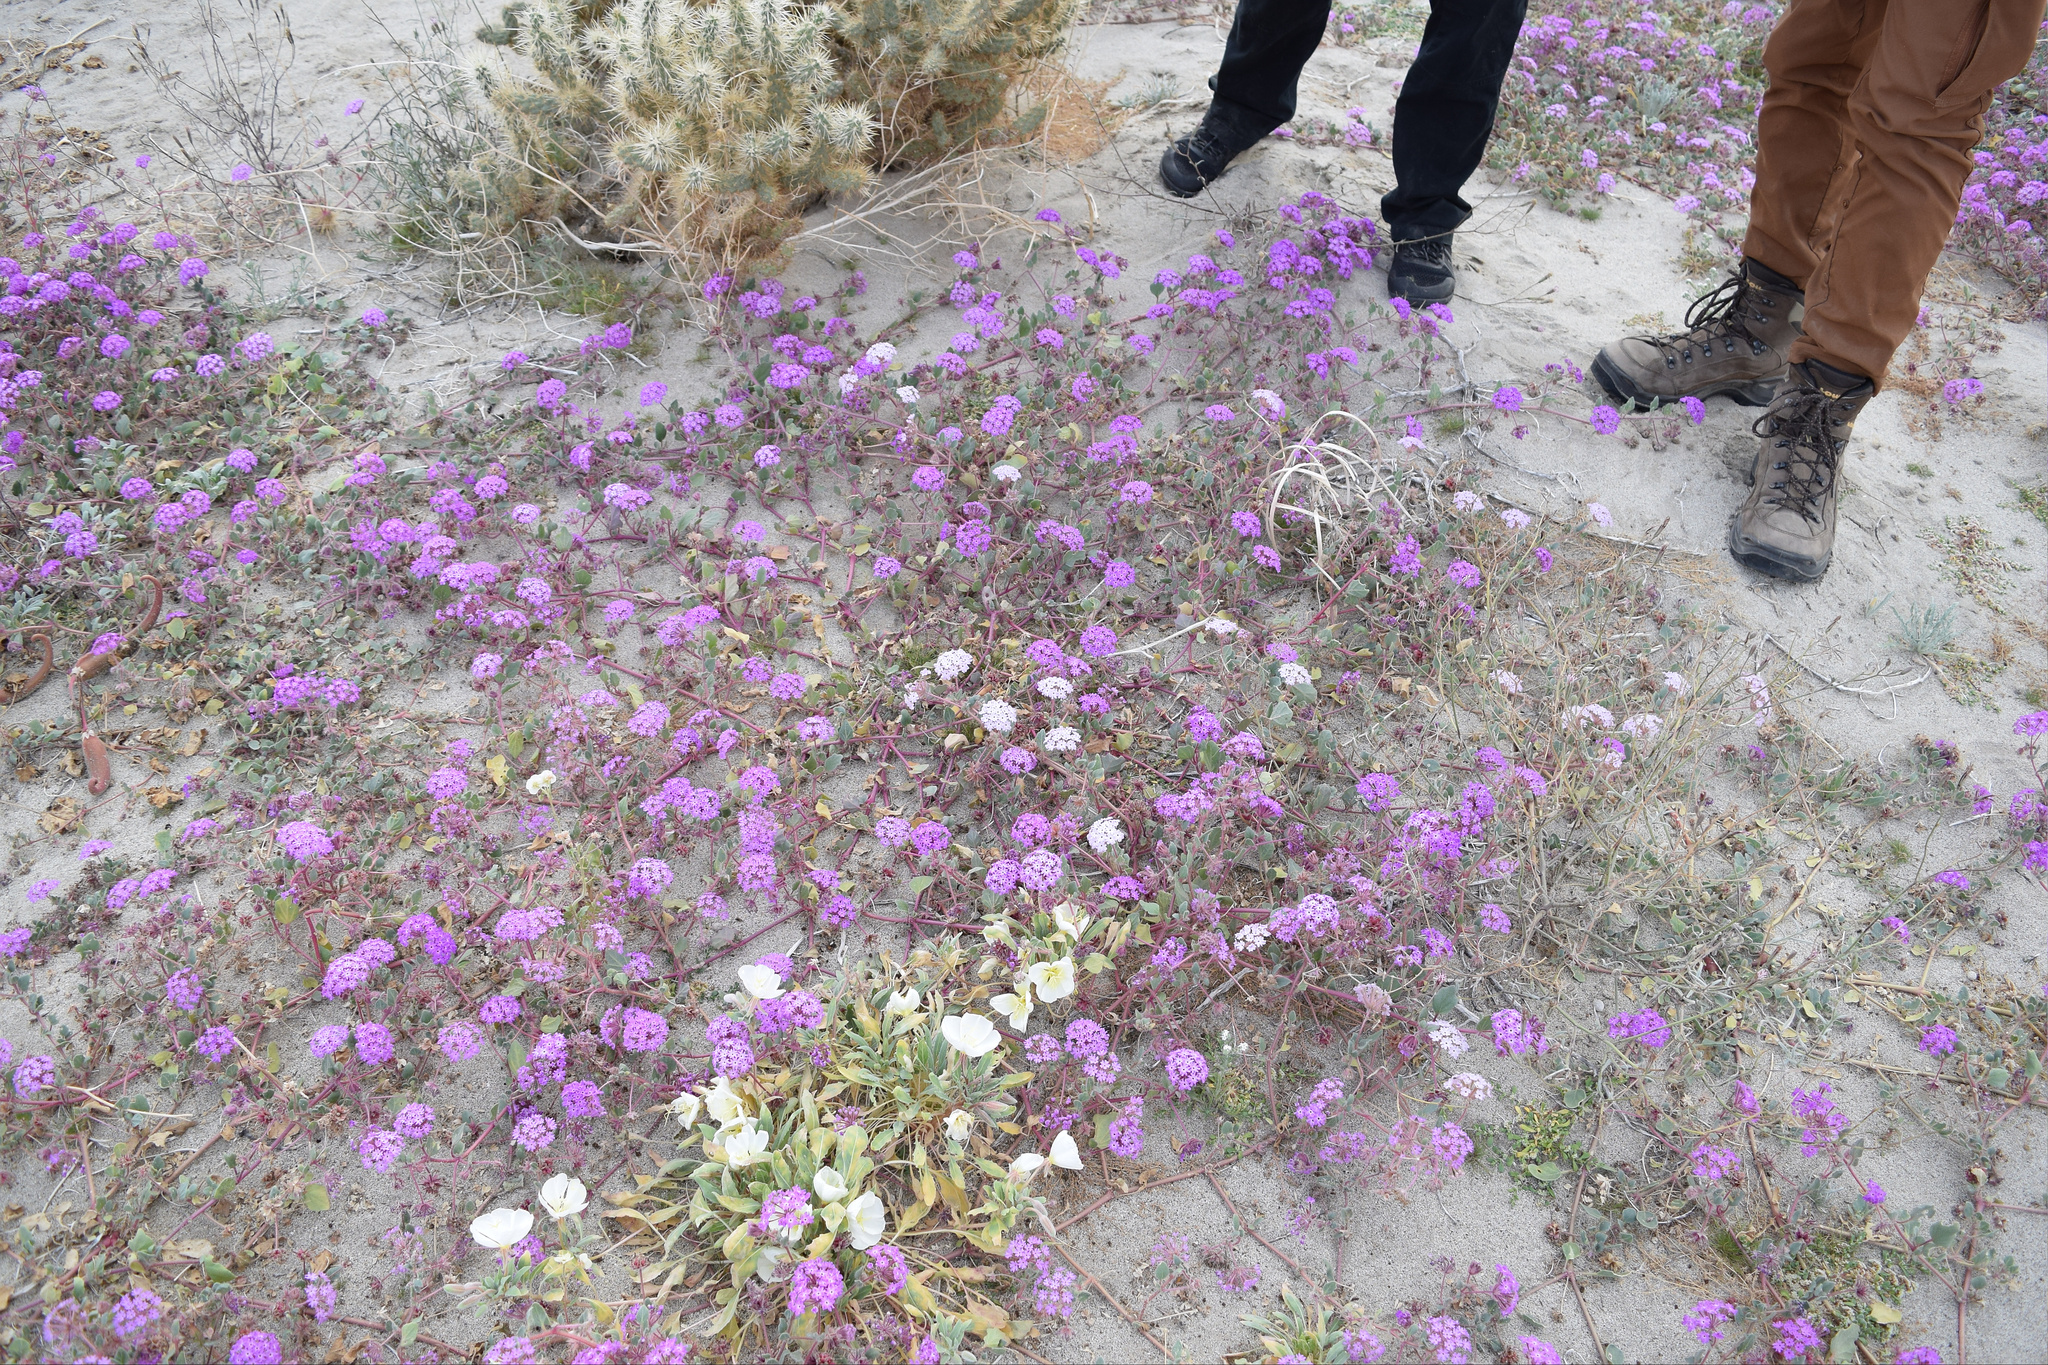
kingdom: Plantae
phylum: Tracheophyta
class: Magnoliopsida
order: Caryophyllales
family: Nyctaginaceae
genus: Abronia
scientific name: Abronia villosa
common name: Desert sand-verbena
